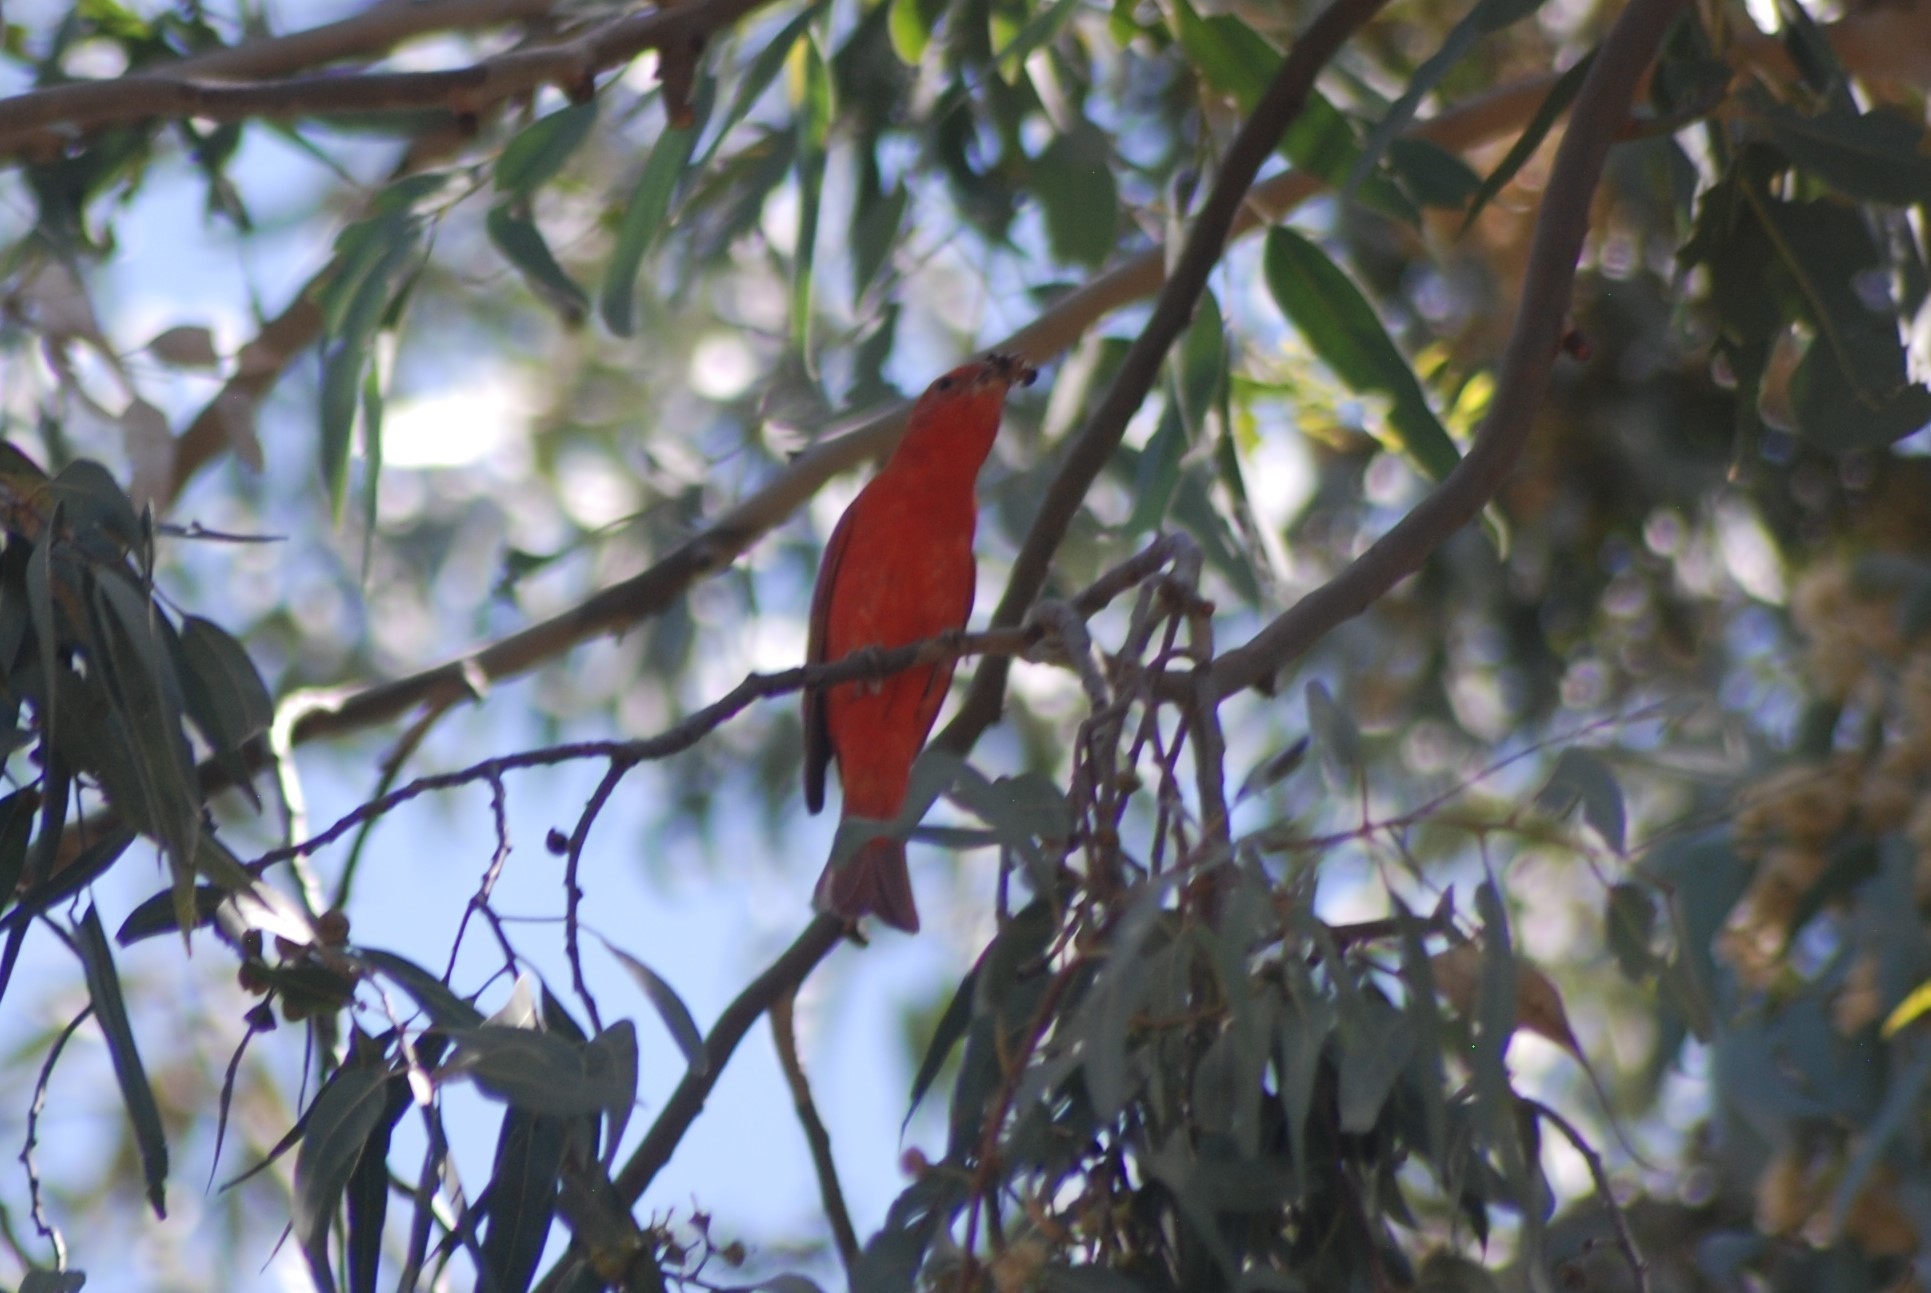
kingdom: Animalia
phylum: Chordata
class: Aves
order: Passeriformes
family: Cardinalidae
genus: Piranga
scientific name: Piranga rubra
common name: Summer tanager
